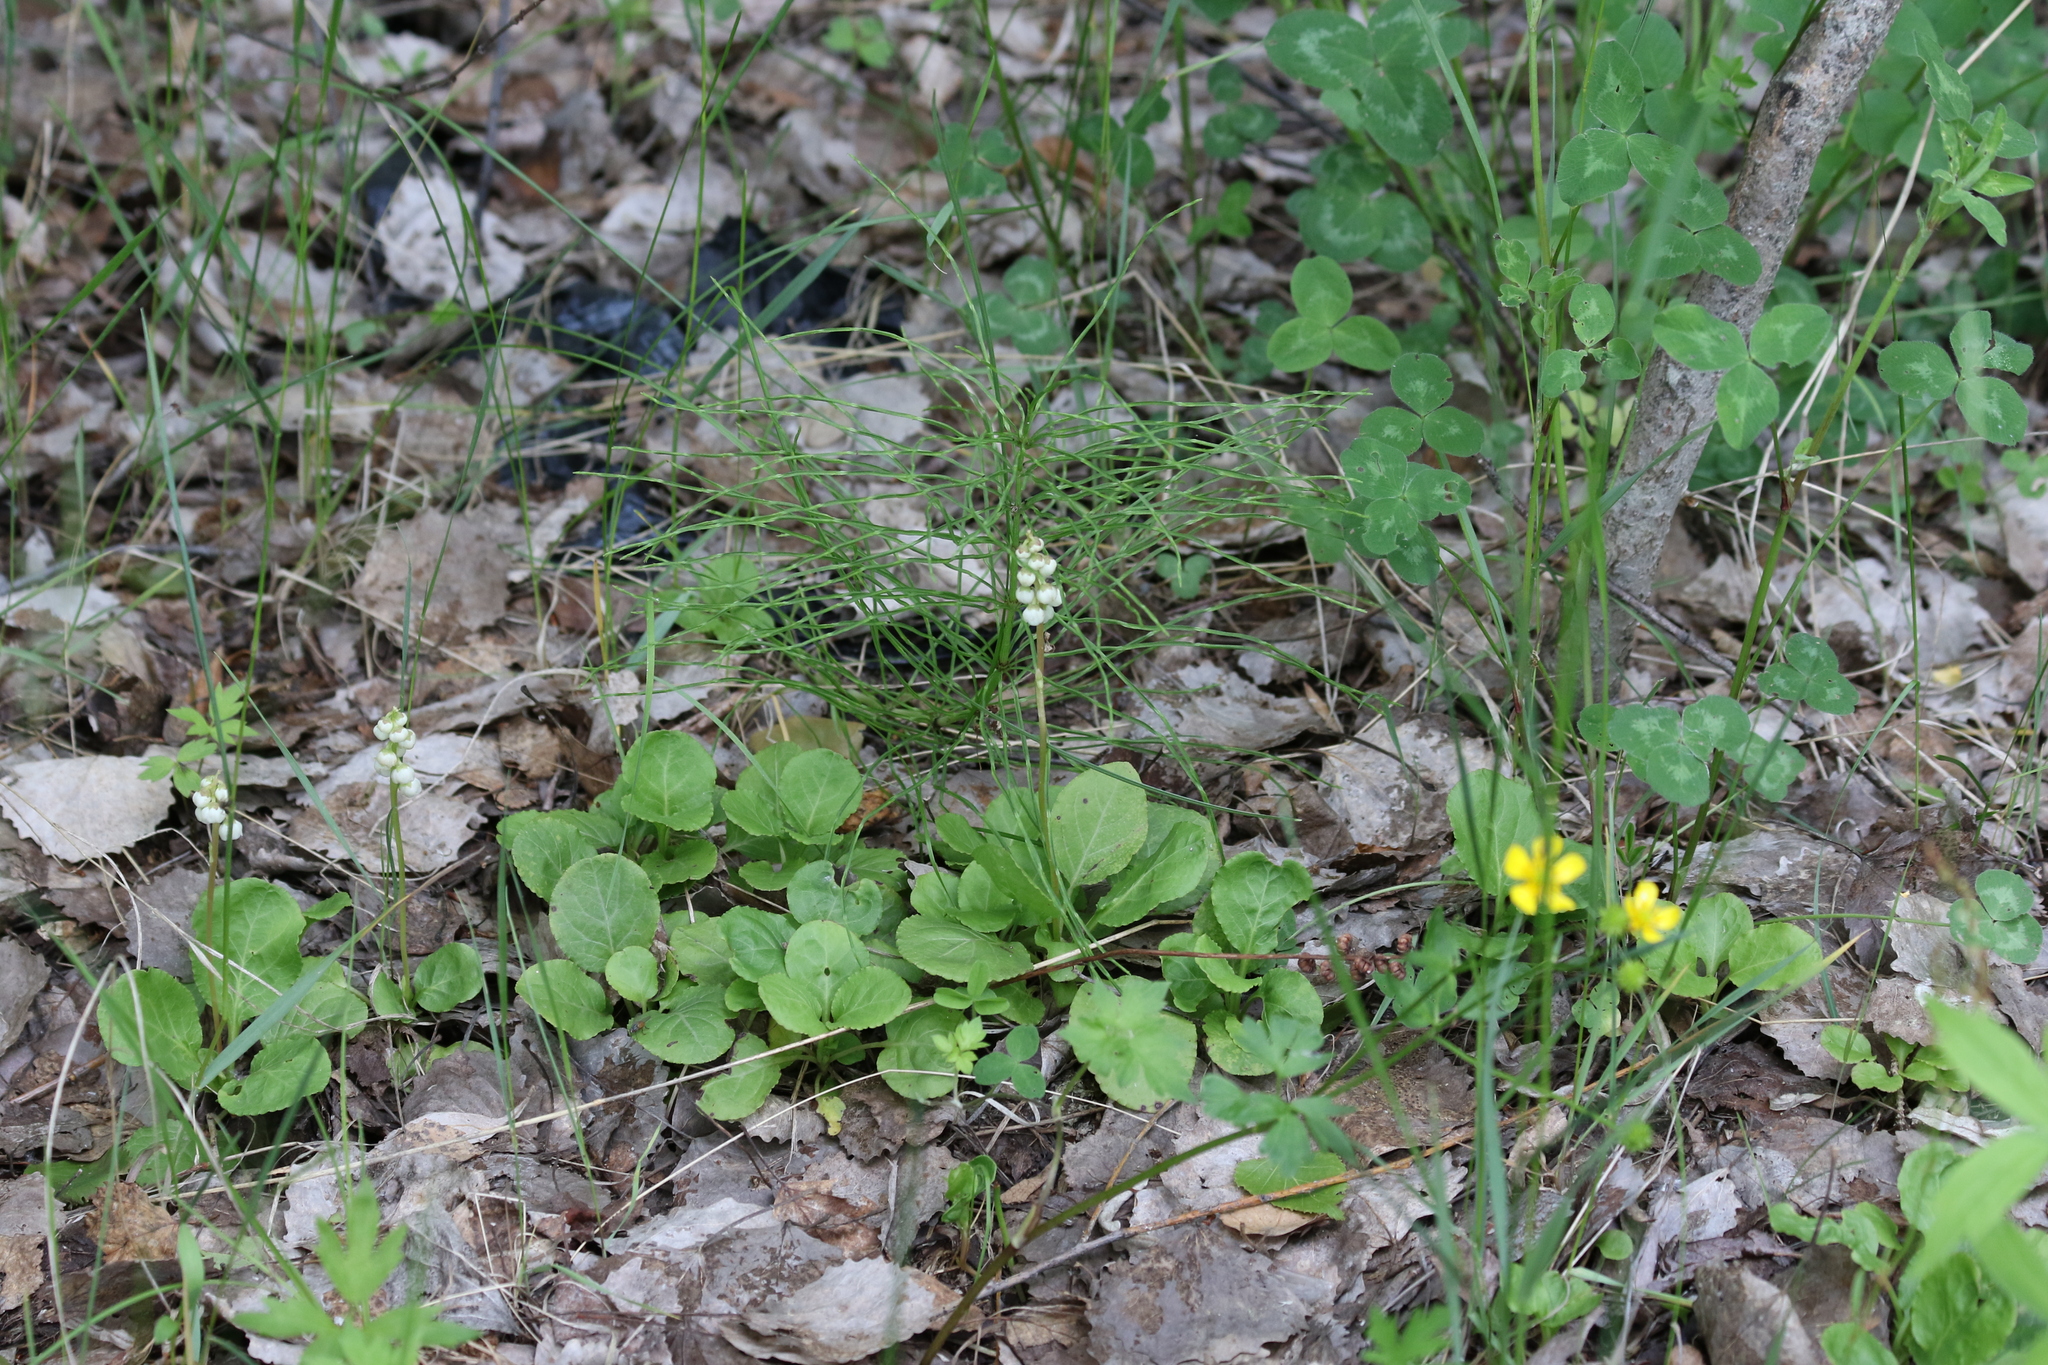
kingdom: Plantae
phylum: Tracheophyta
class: Magnoliopsida
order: Ericales
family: Ericaceae
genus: Pyrola
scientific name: Pyrola minor
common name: Common wintergreen
